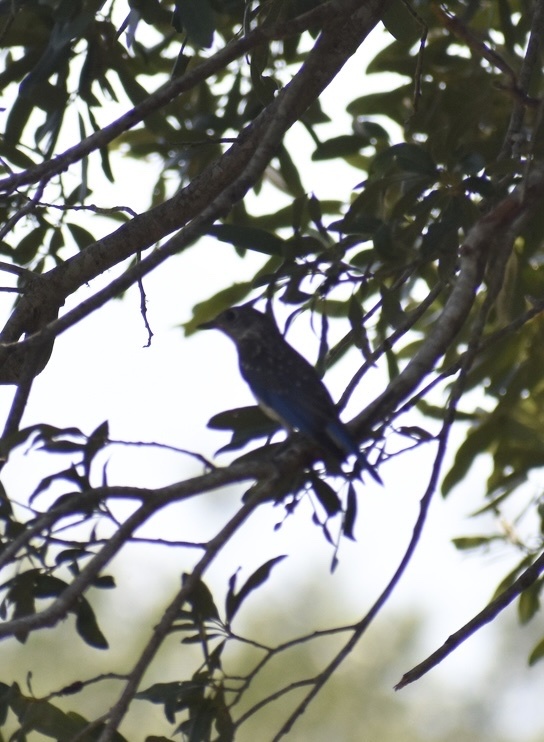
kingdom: Animalia
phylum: Chordata
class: Aves
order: Passeriformes
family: Turdidae
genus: Sialia
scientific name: Sialia sialis
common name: Eastern bluebird
